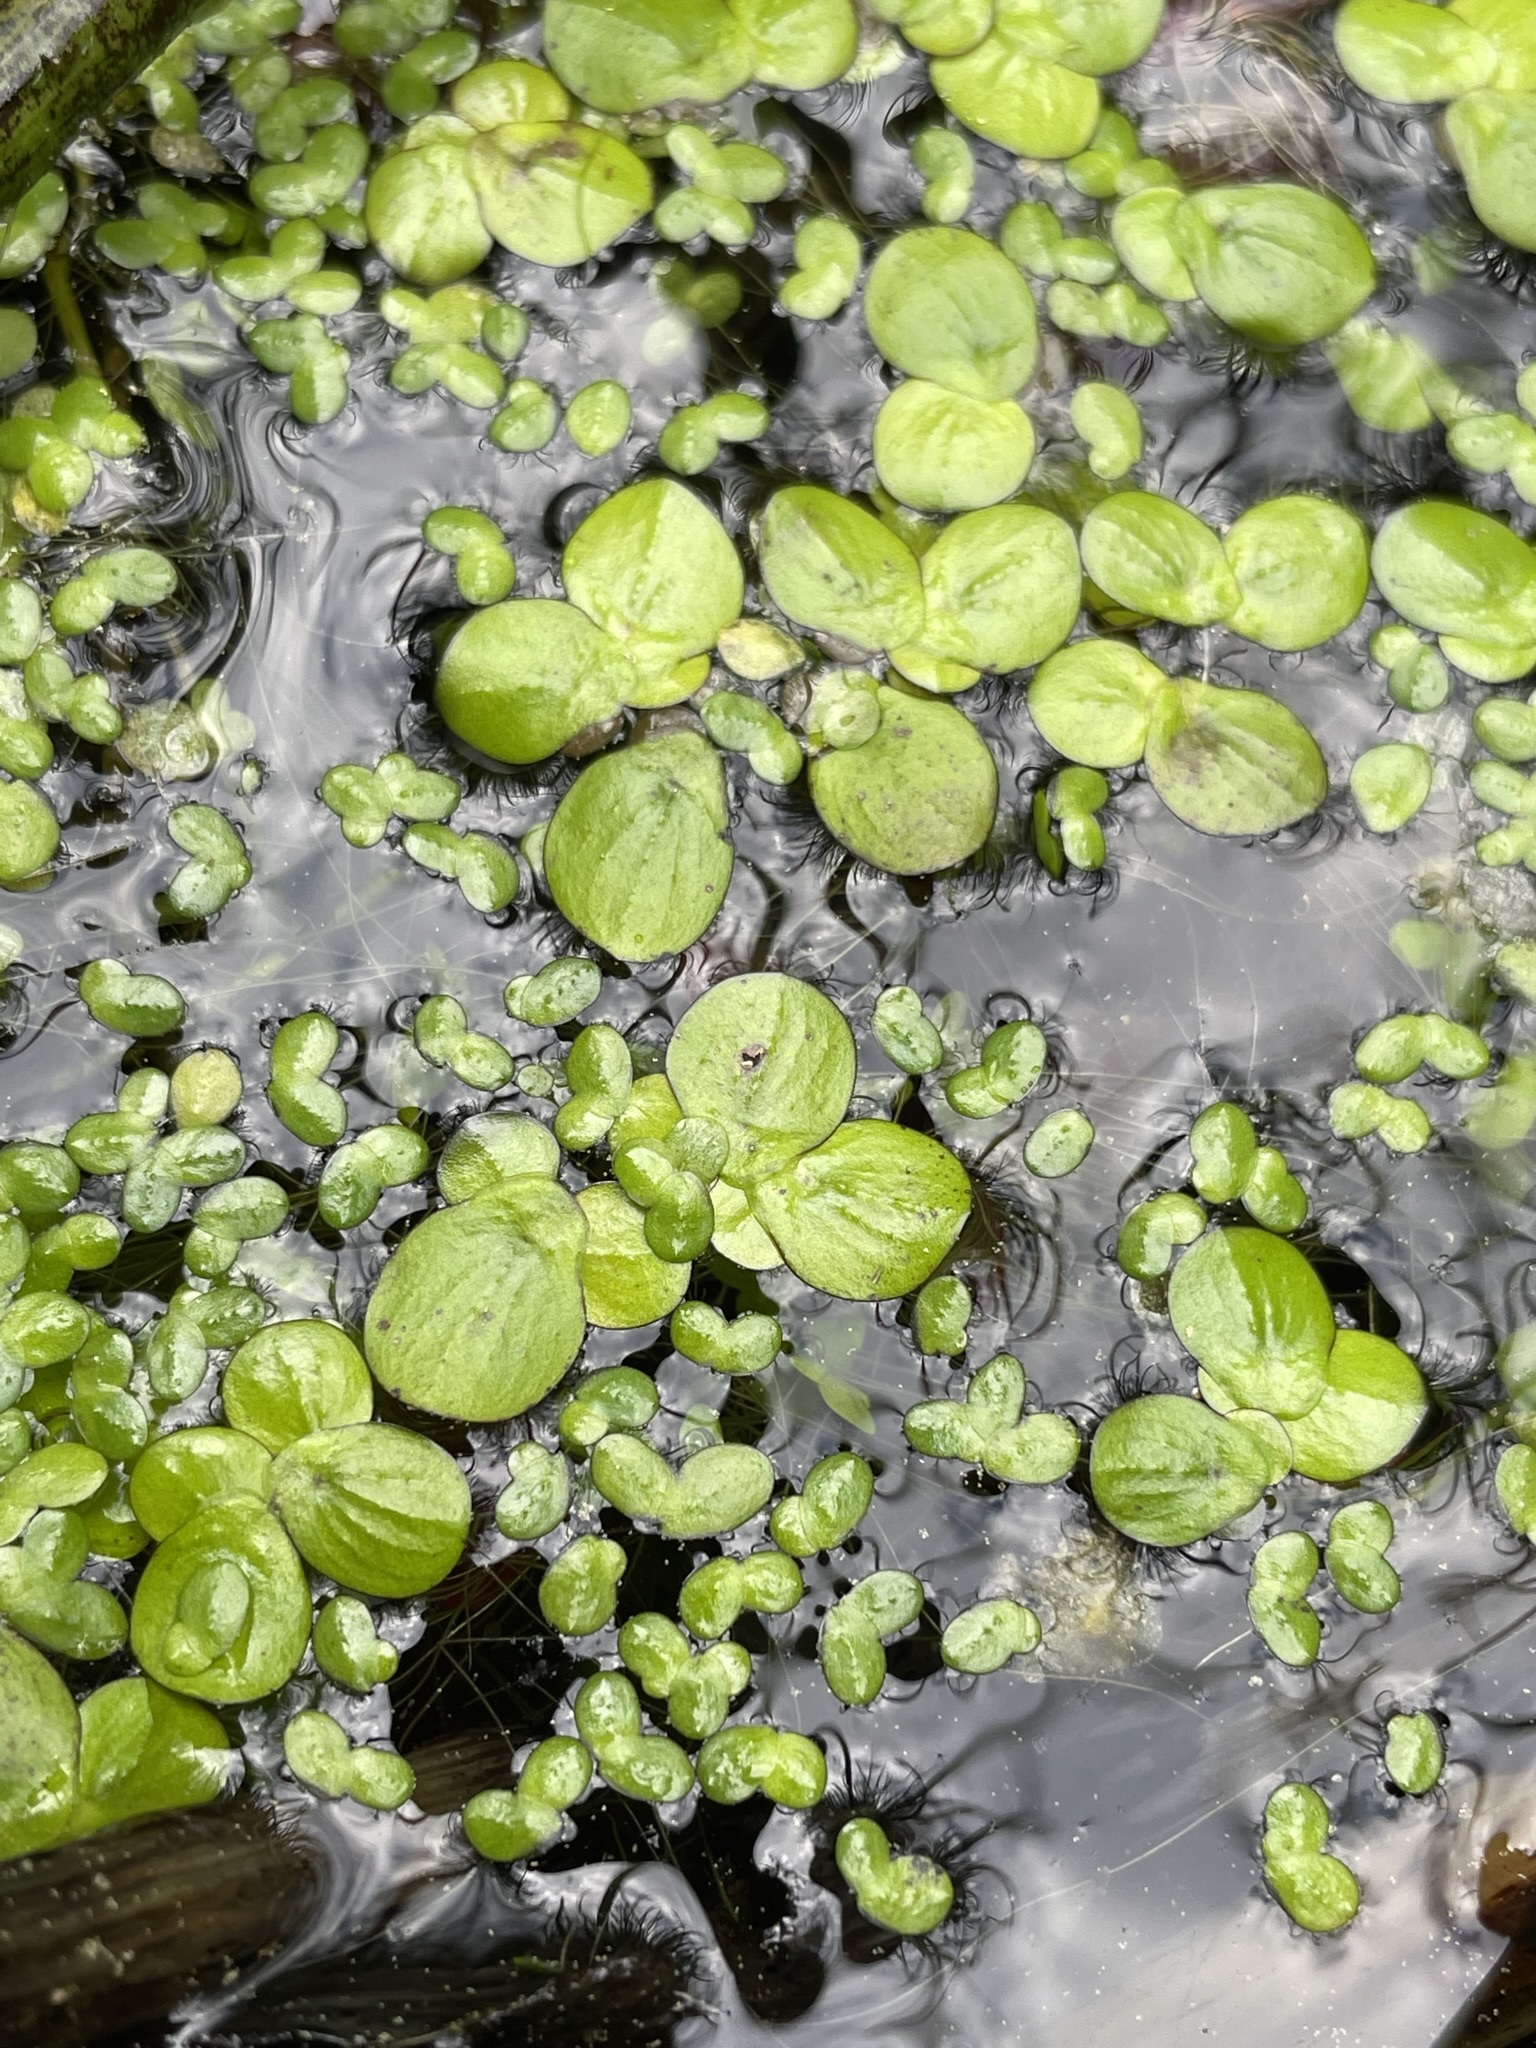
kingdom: Plantae
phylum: Tracheophyta
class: Liliopsida
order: Alismatales
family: Araceae
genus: Spirodela
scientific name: Spirodela polyrhiza
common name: Great duckweed
